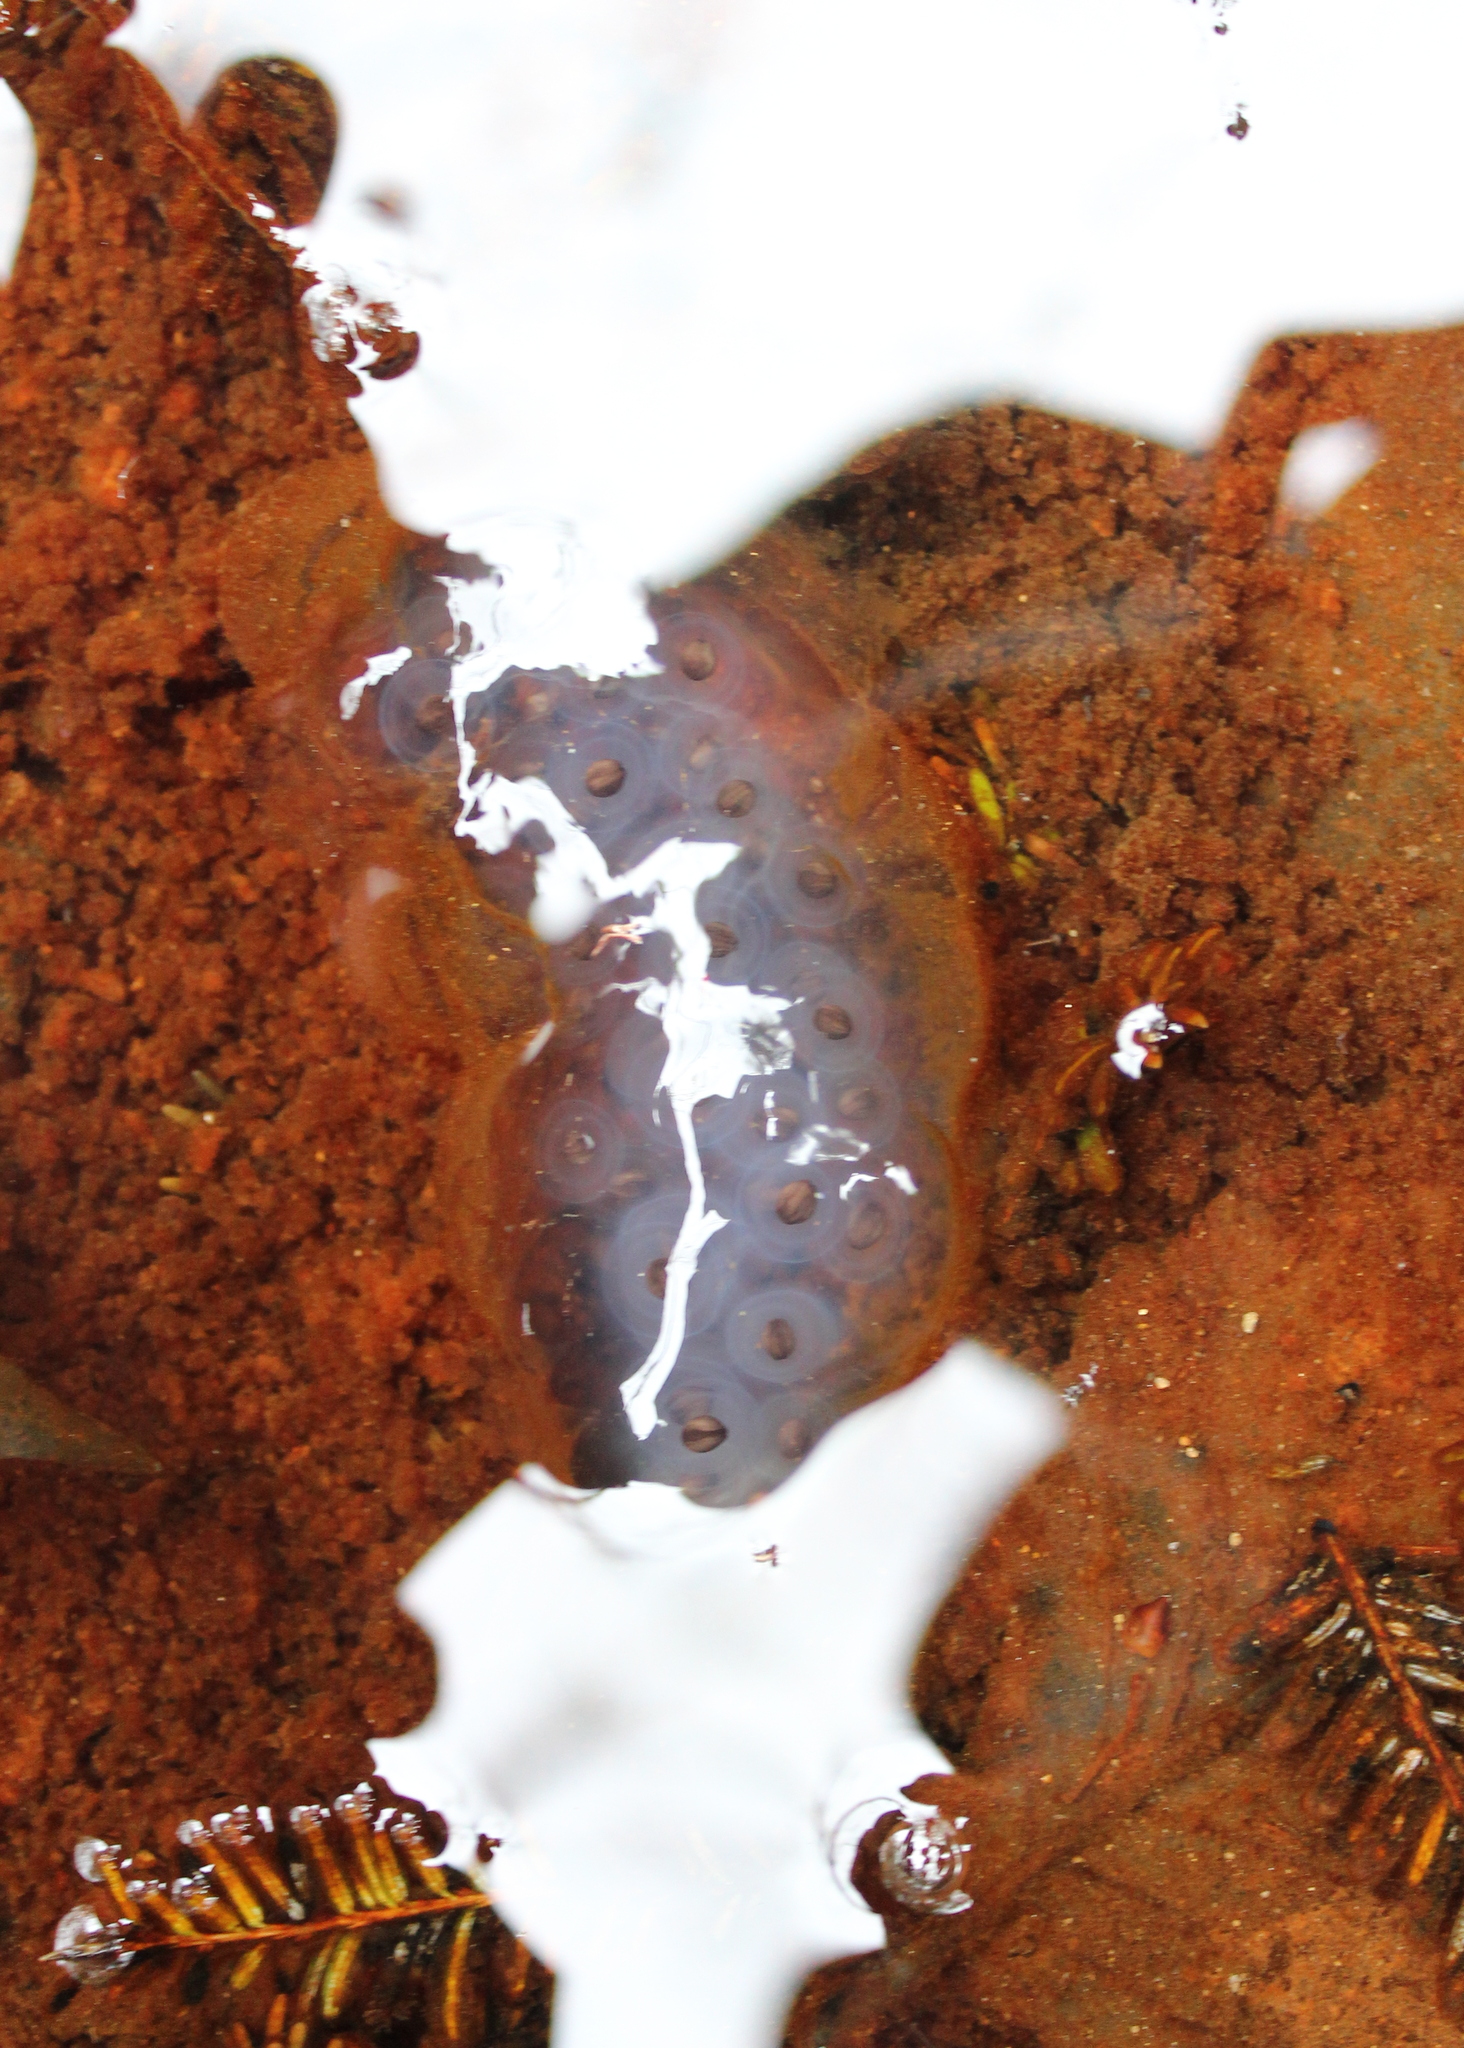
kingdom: Animalia
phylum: Chordata
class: Amphibia
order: Caudata
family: Ambystomatidae
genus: Ambystoma
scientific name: Ambystoma maculatum
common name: Spotted salamander
